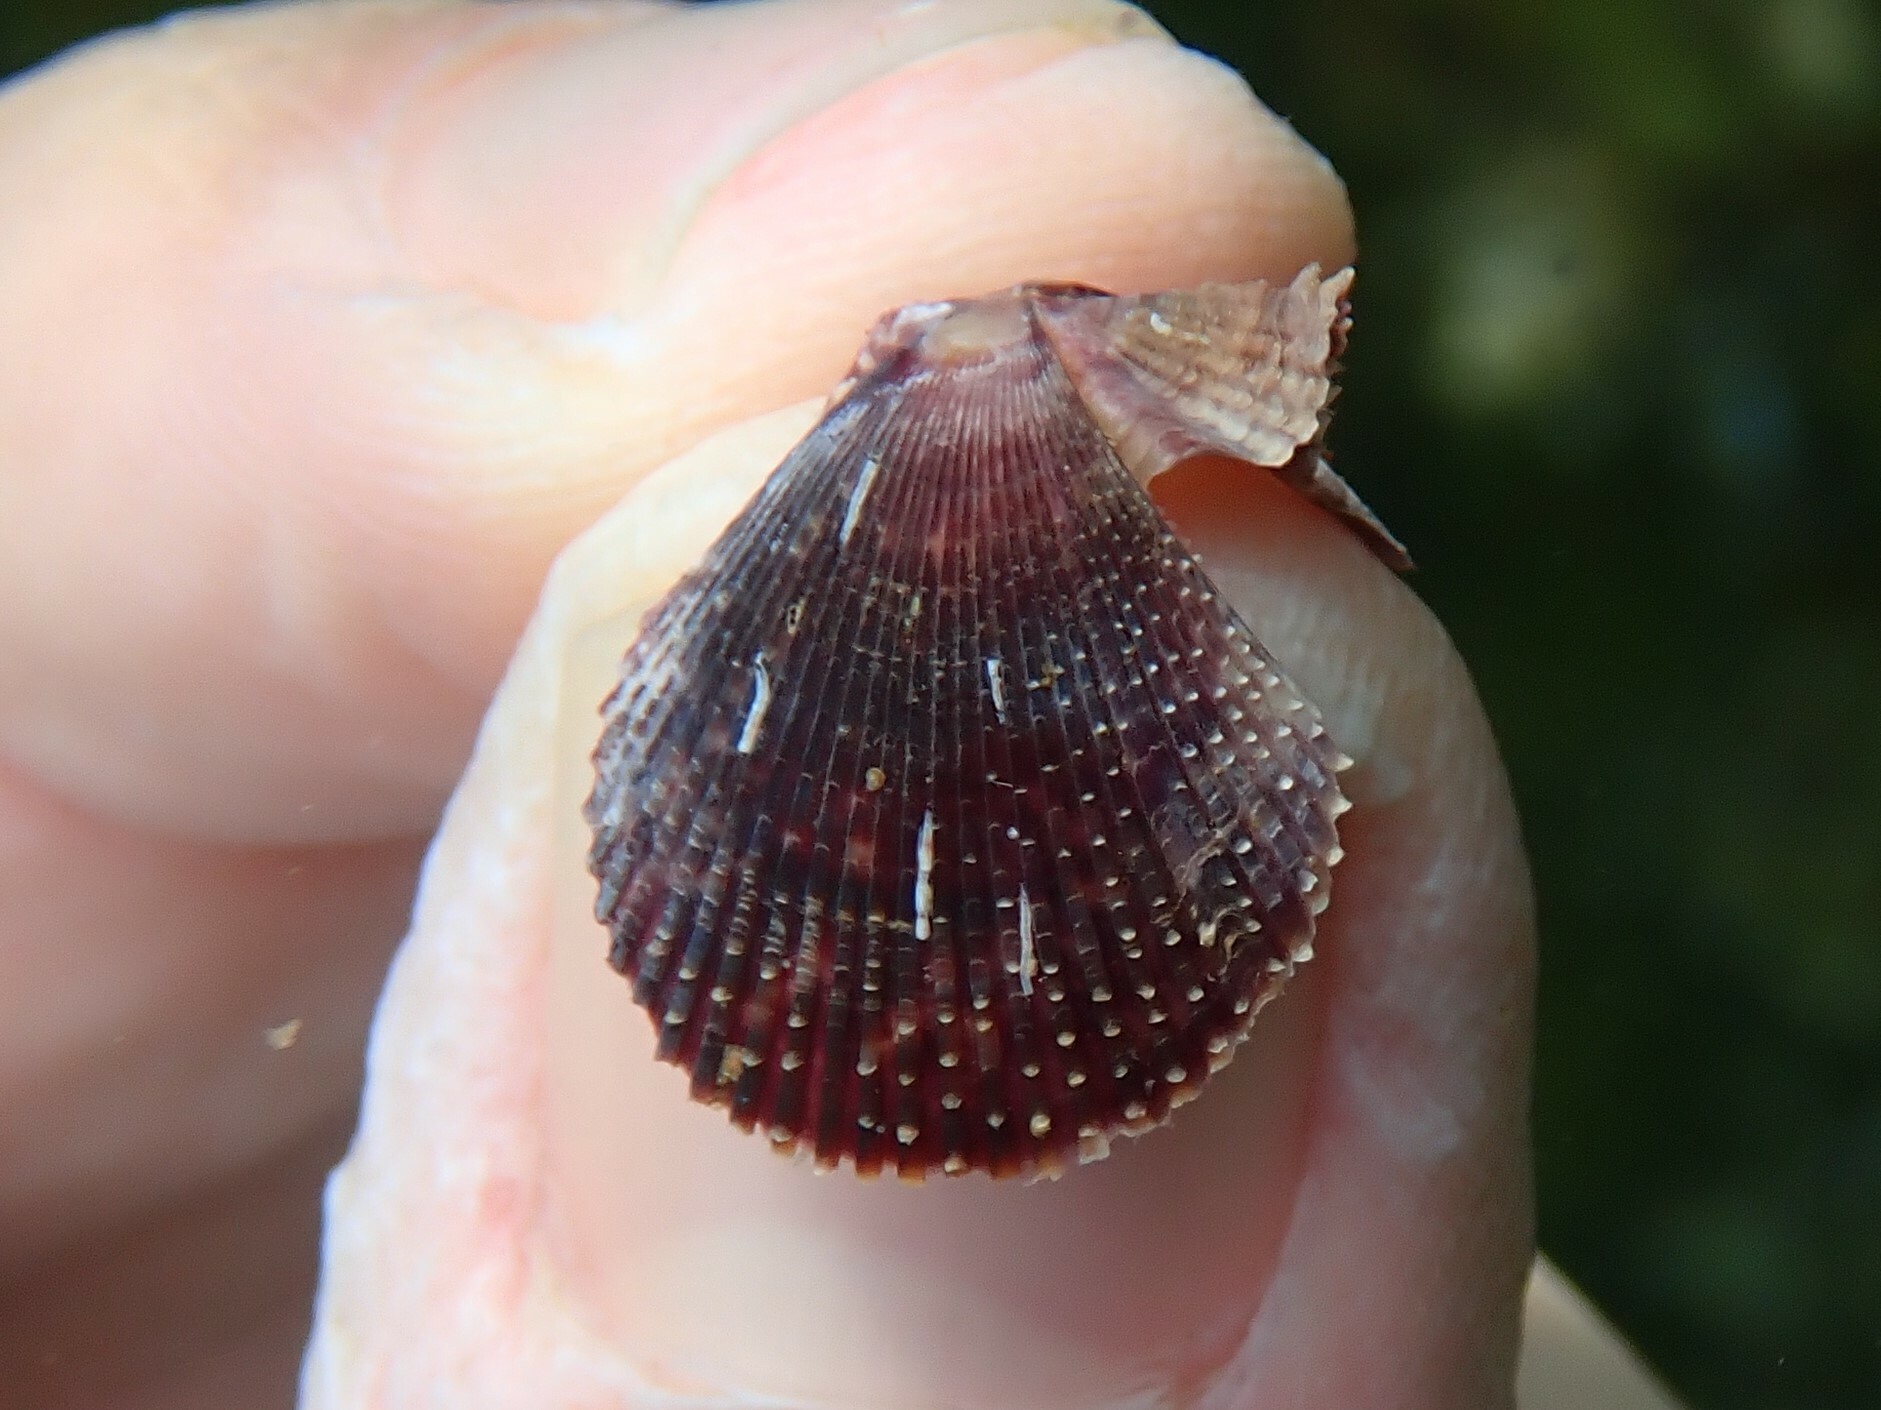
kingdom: Animalia
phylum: Mollusca
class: Bivalvia
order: Pectinida
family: Pectinidae
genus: Mimachlamys
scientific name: Mimachlamys varia
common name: Variegated scallop
